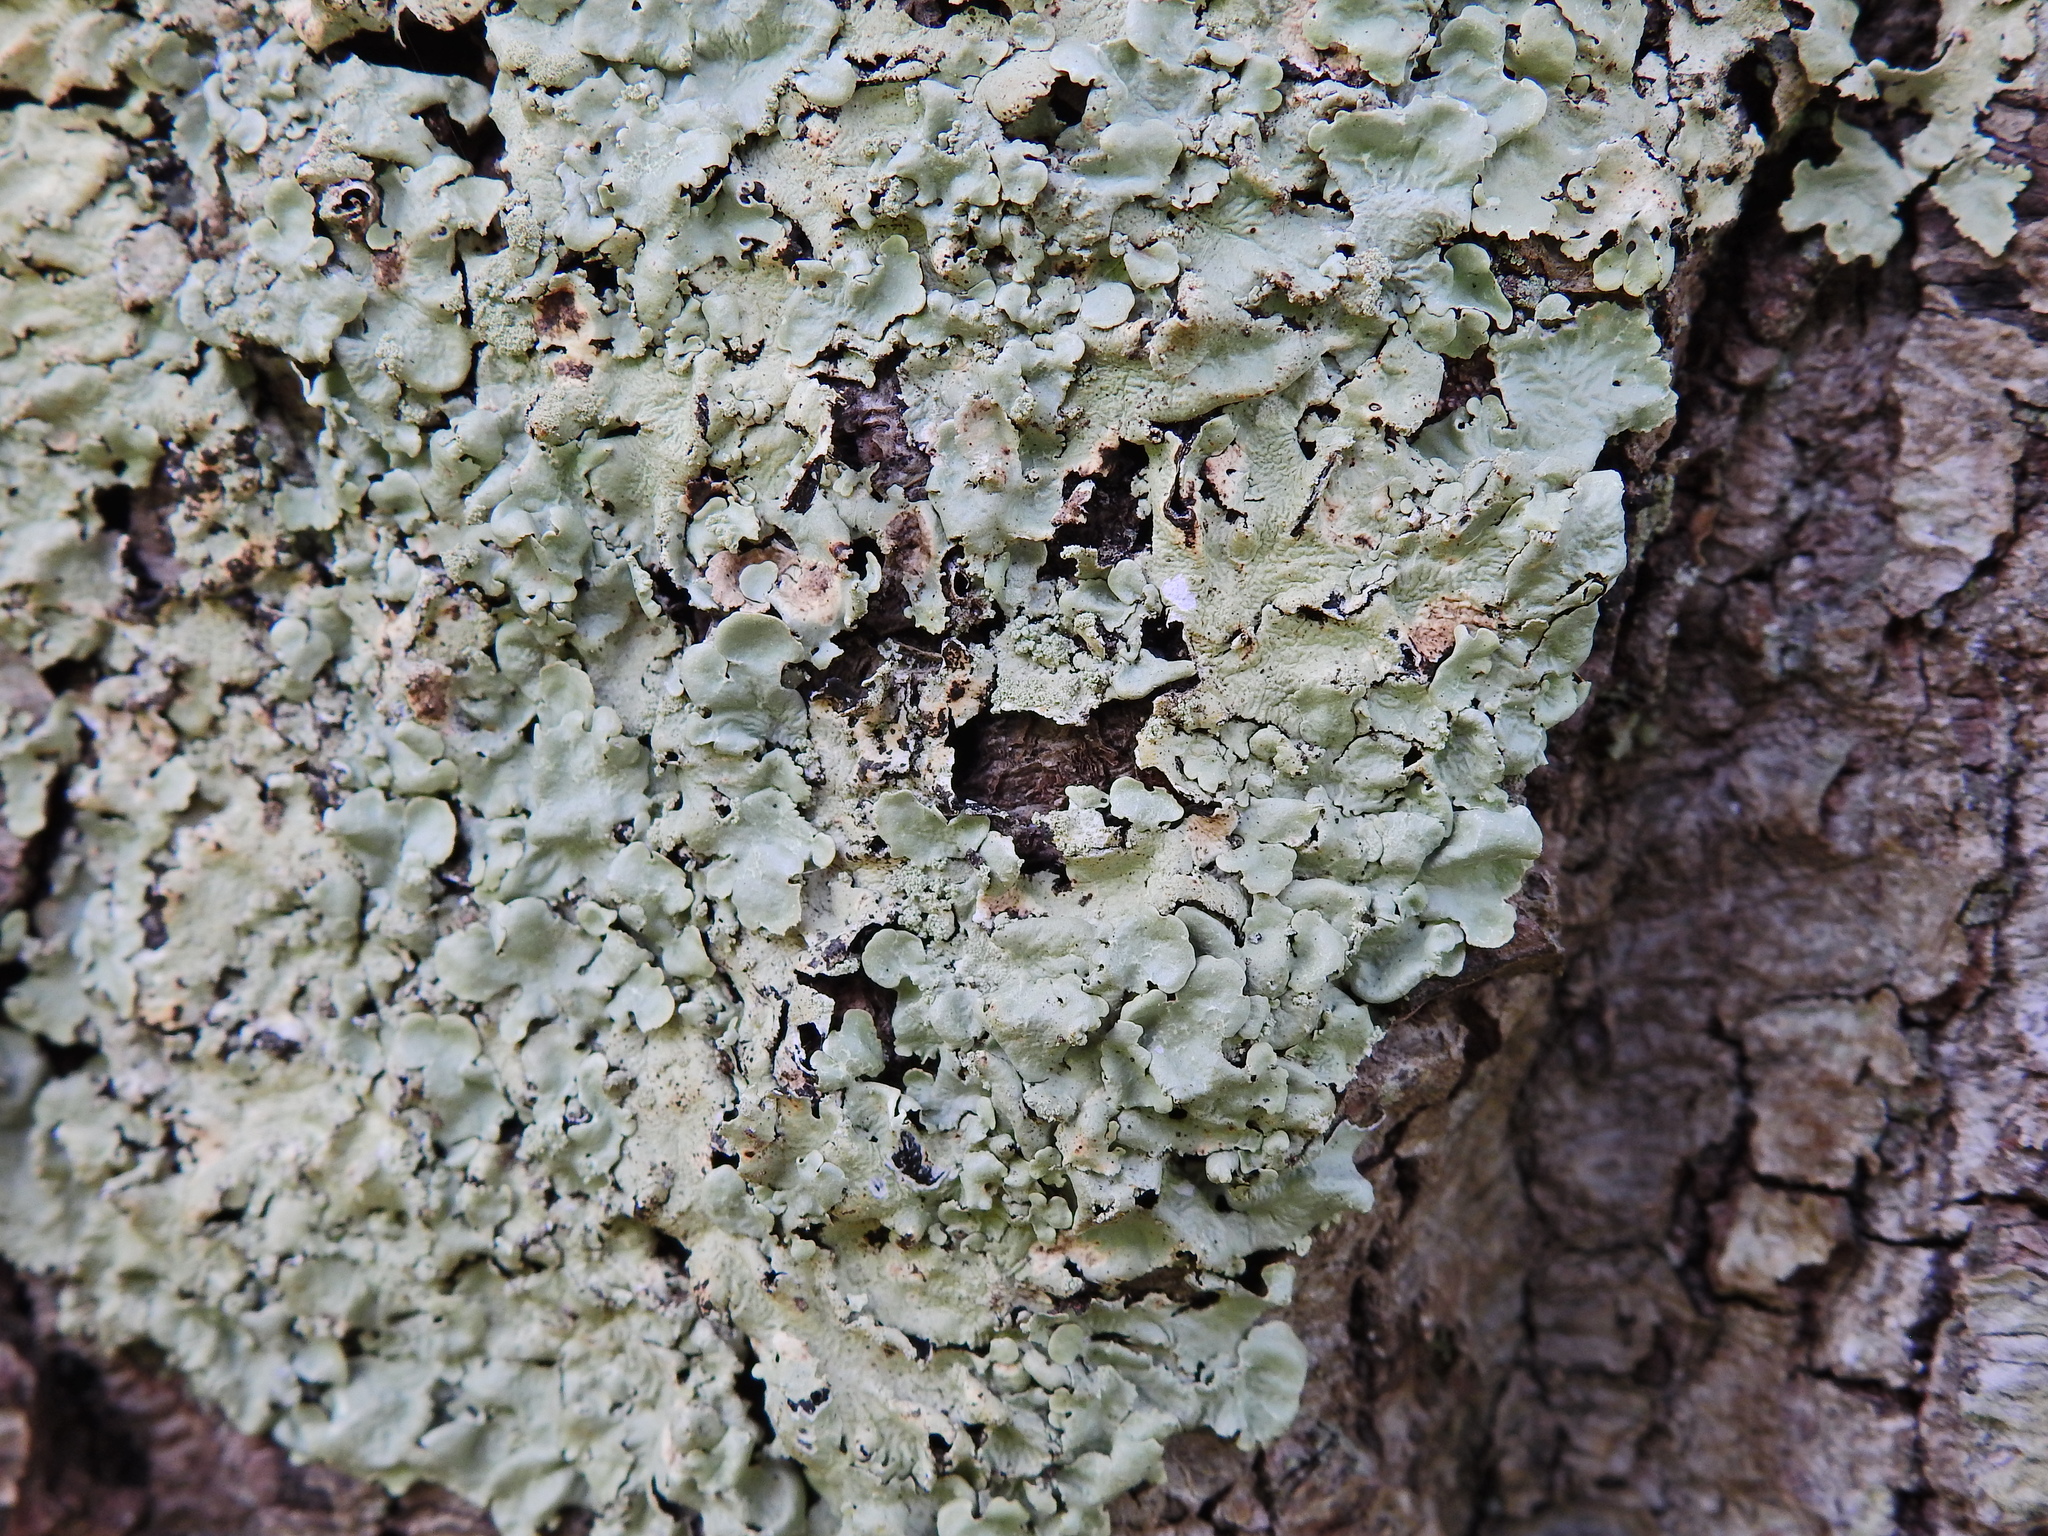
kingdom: Fungi
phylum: Ascomycota
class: Lecanoromycetes
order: Lecanorales
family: Parmeliaceae
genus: Flavoparmelia
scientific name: Flavoparmelia caperata
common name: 40-mile per hour lichen
